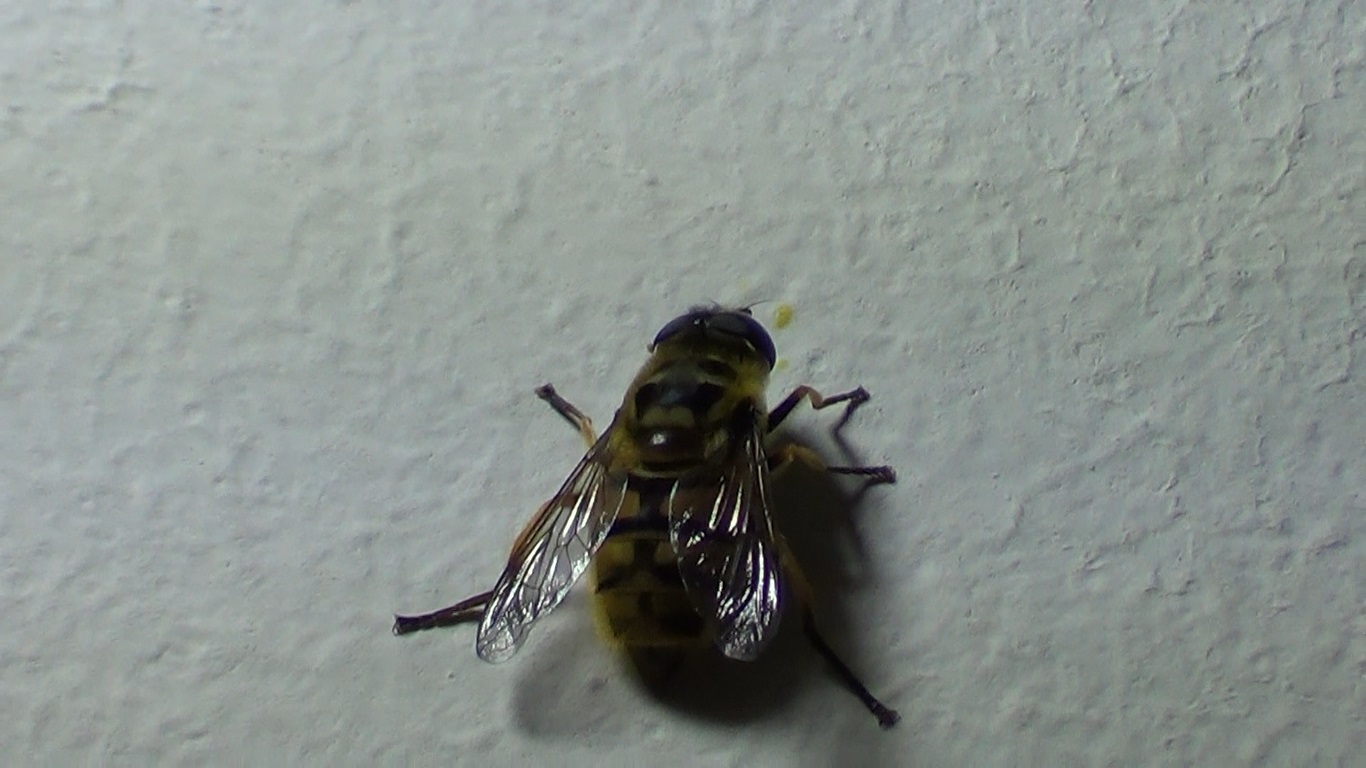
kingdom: Animalia
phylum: Arthropoda
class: Insecta
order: Diptera
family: Syrphidae
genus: Myathropa
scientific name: Myathropa florea
